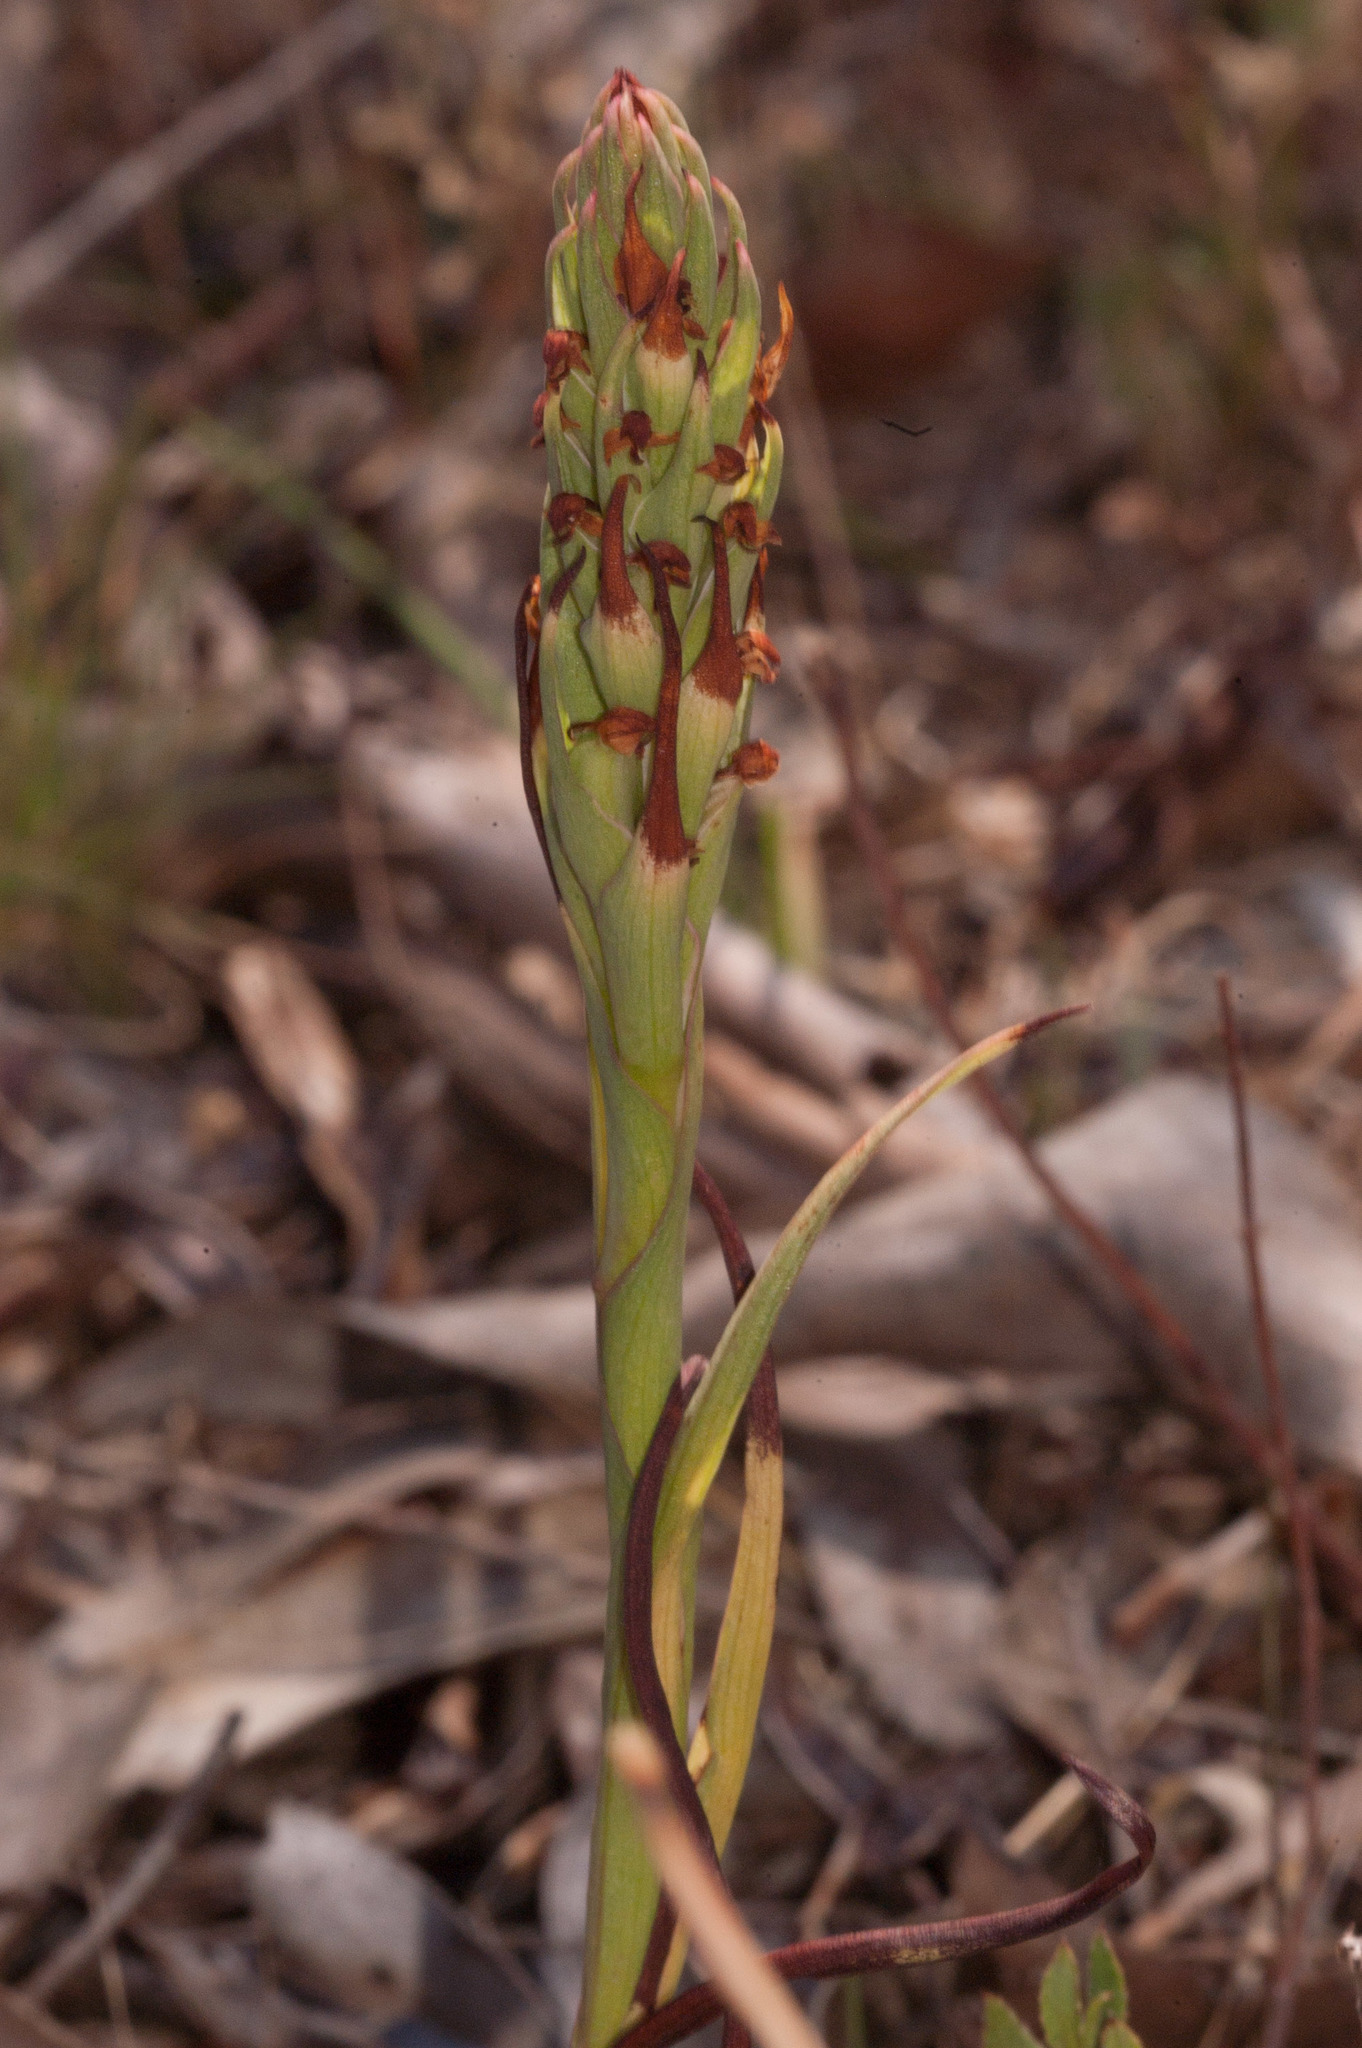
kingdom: Plantae
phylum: Tracheophyta
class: Liliopsida
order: Asparagales
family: Orchidaceae
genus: Disa
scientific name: Disa bracteata
